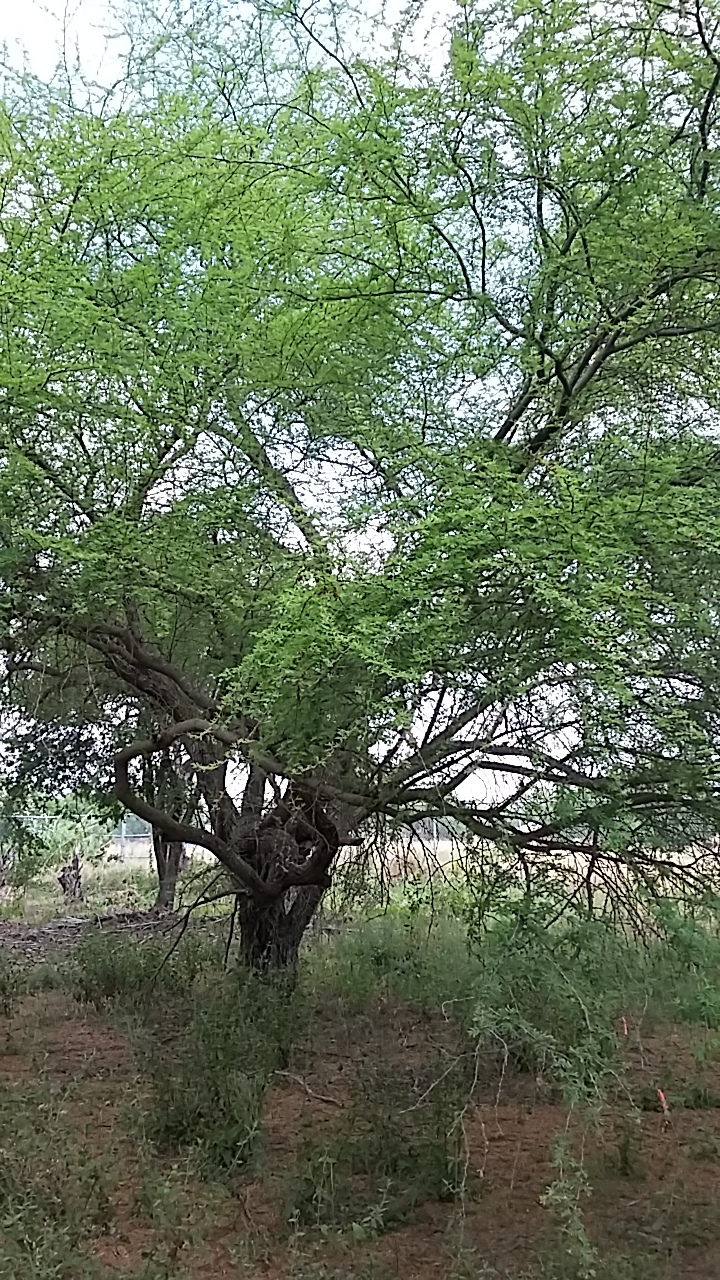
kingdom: Plantae
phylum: Tracheophyta
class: Magnoliopsida
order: Fabales
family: Fabaceae
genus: Vachellia
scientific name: Vachellia farnesiana
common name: Sweet acacia
